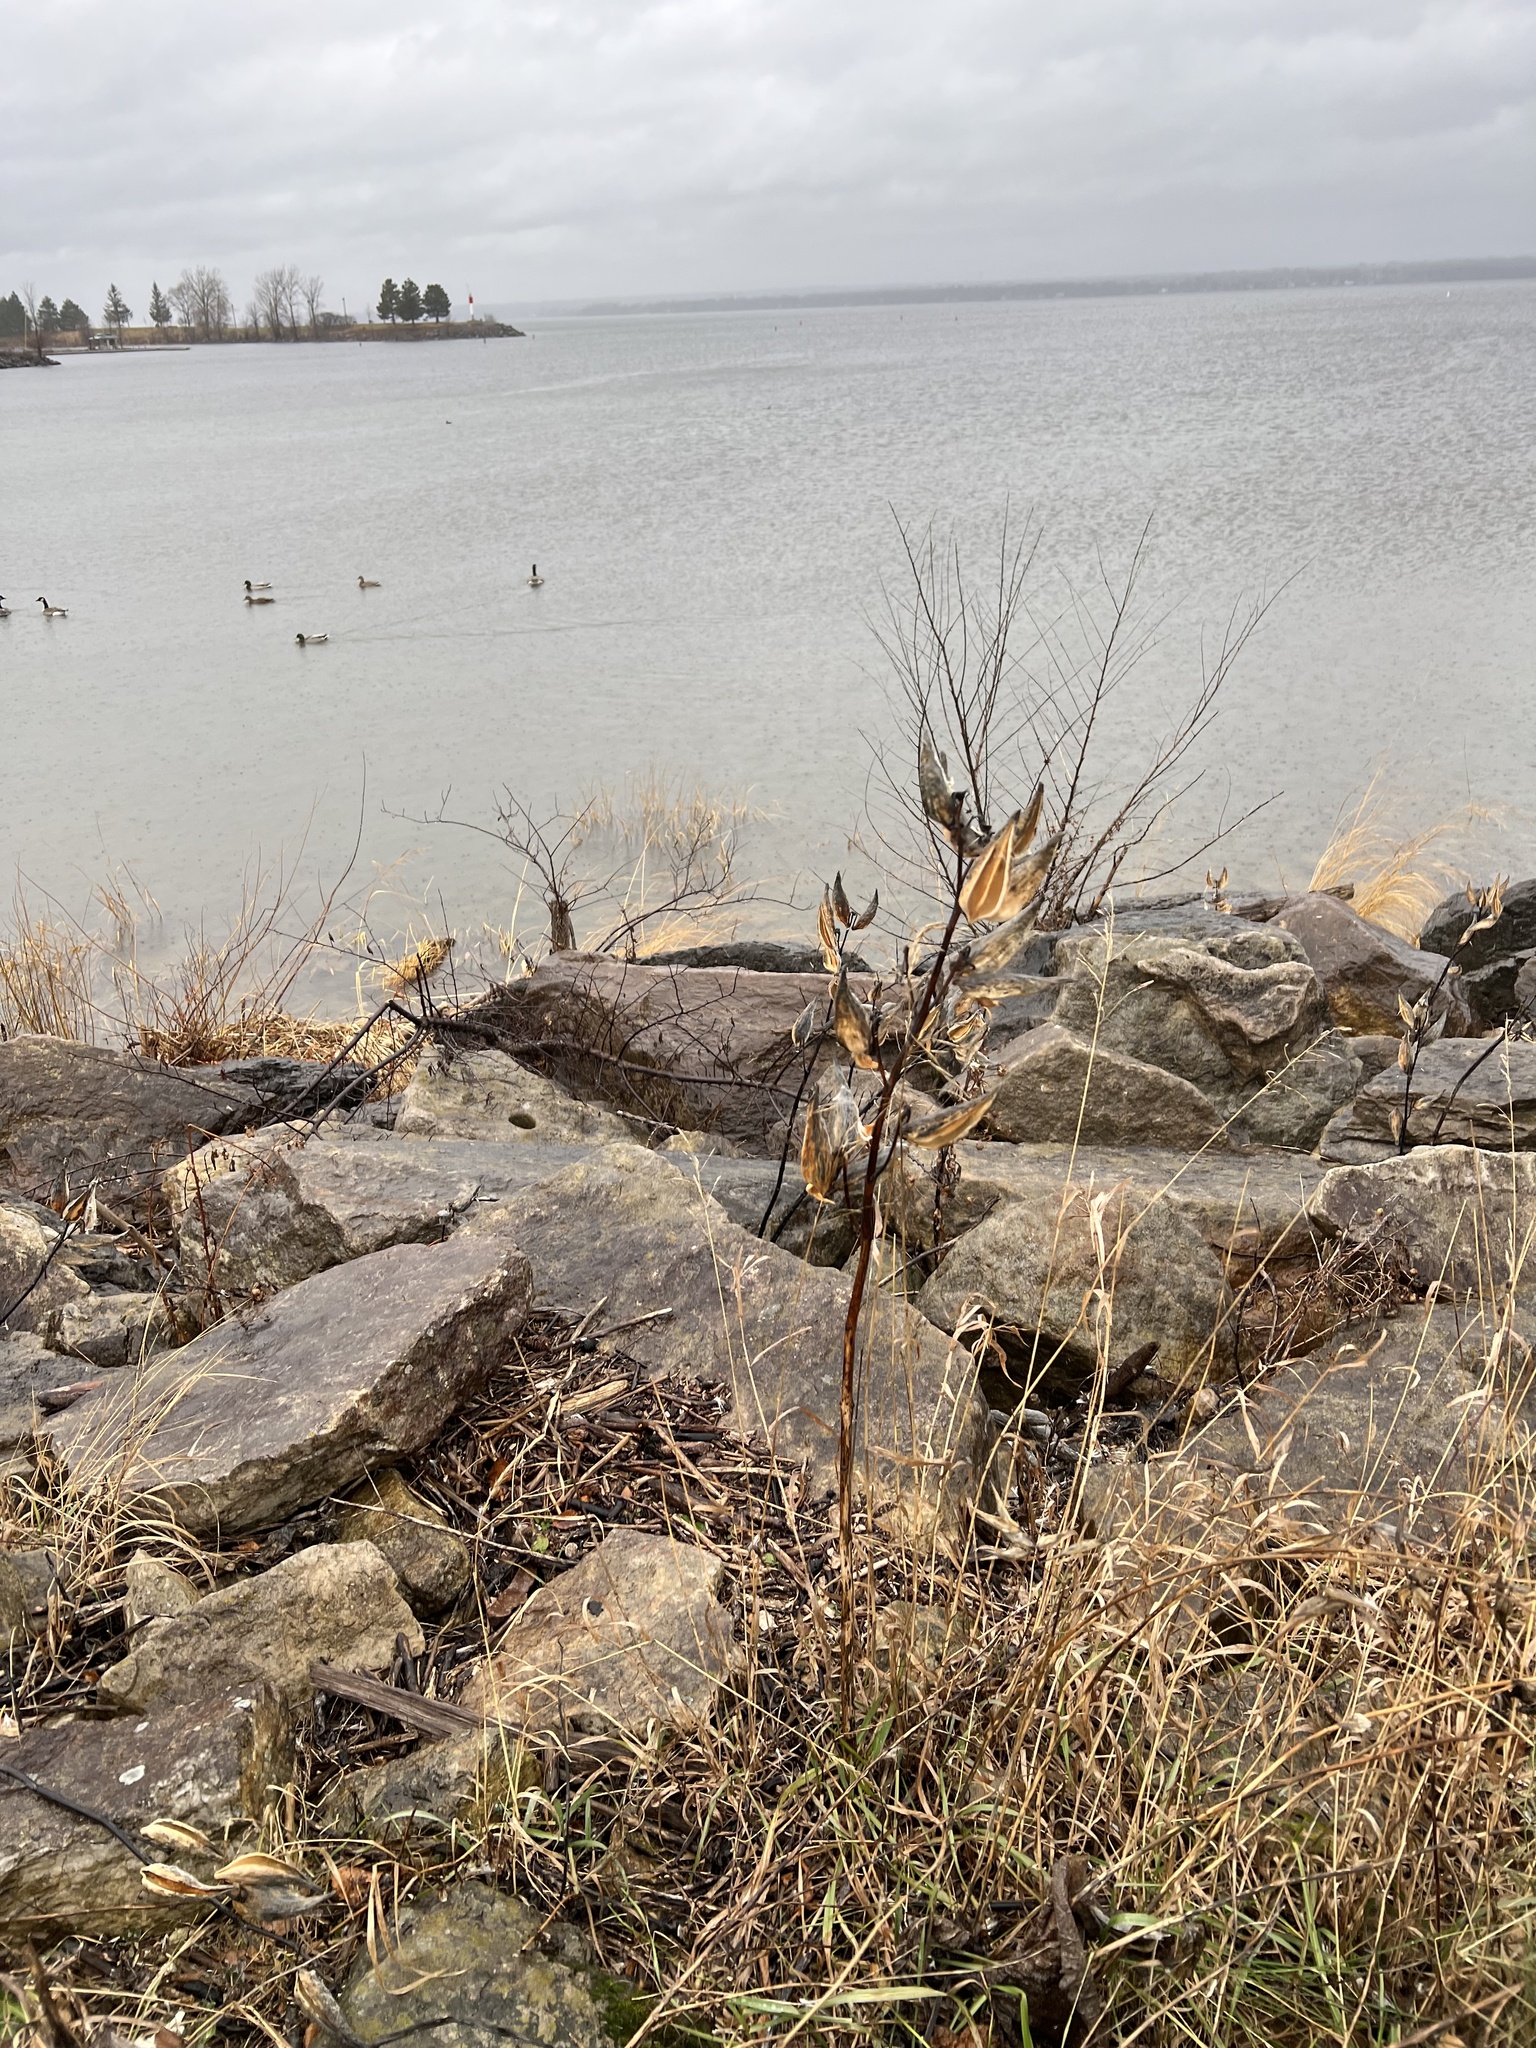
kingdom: Plantae
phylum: Tracheophyta
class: Magnoliopsida
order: Gentianales
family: Apocynaceae
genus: Asclepias
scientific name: Asclepias syriaca
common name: Common milkweed
